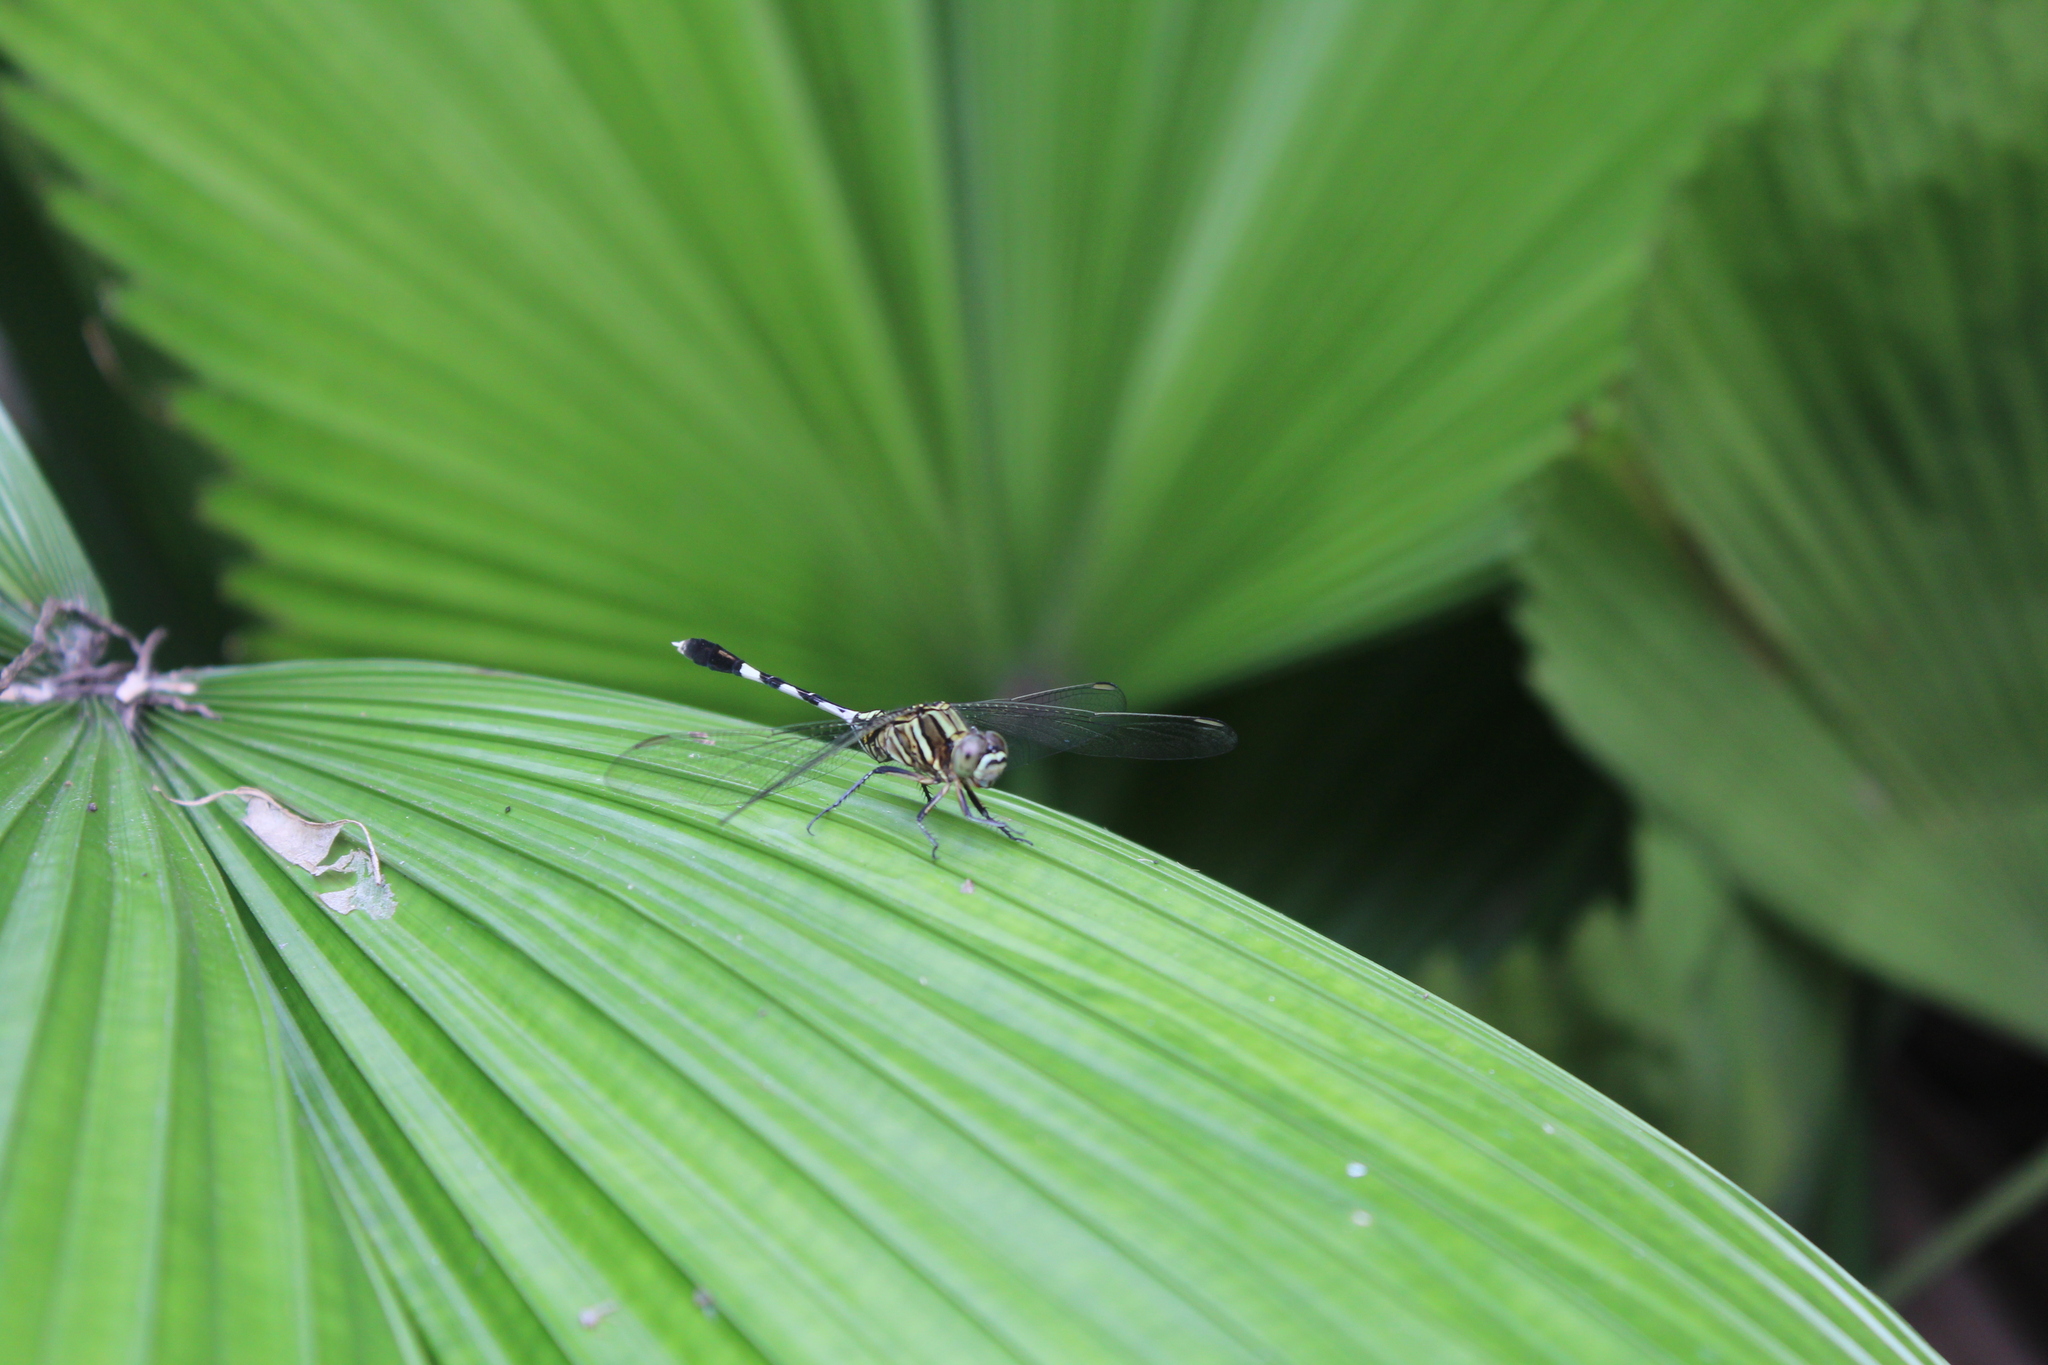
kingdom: Animalia
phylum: Arthropoda
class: Insecta
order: Odonata
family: Libellulidae
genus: Orthetrum
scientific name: Orthetrum sabina
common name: Slender skimmer
